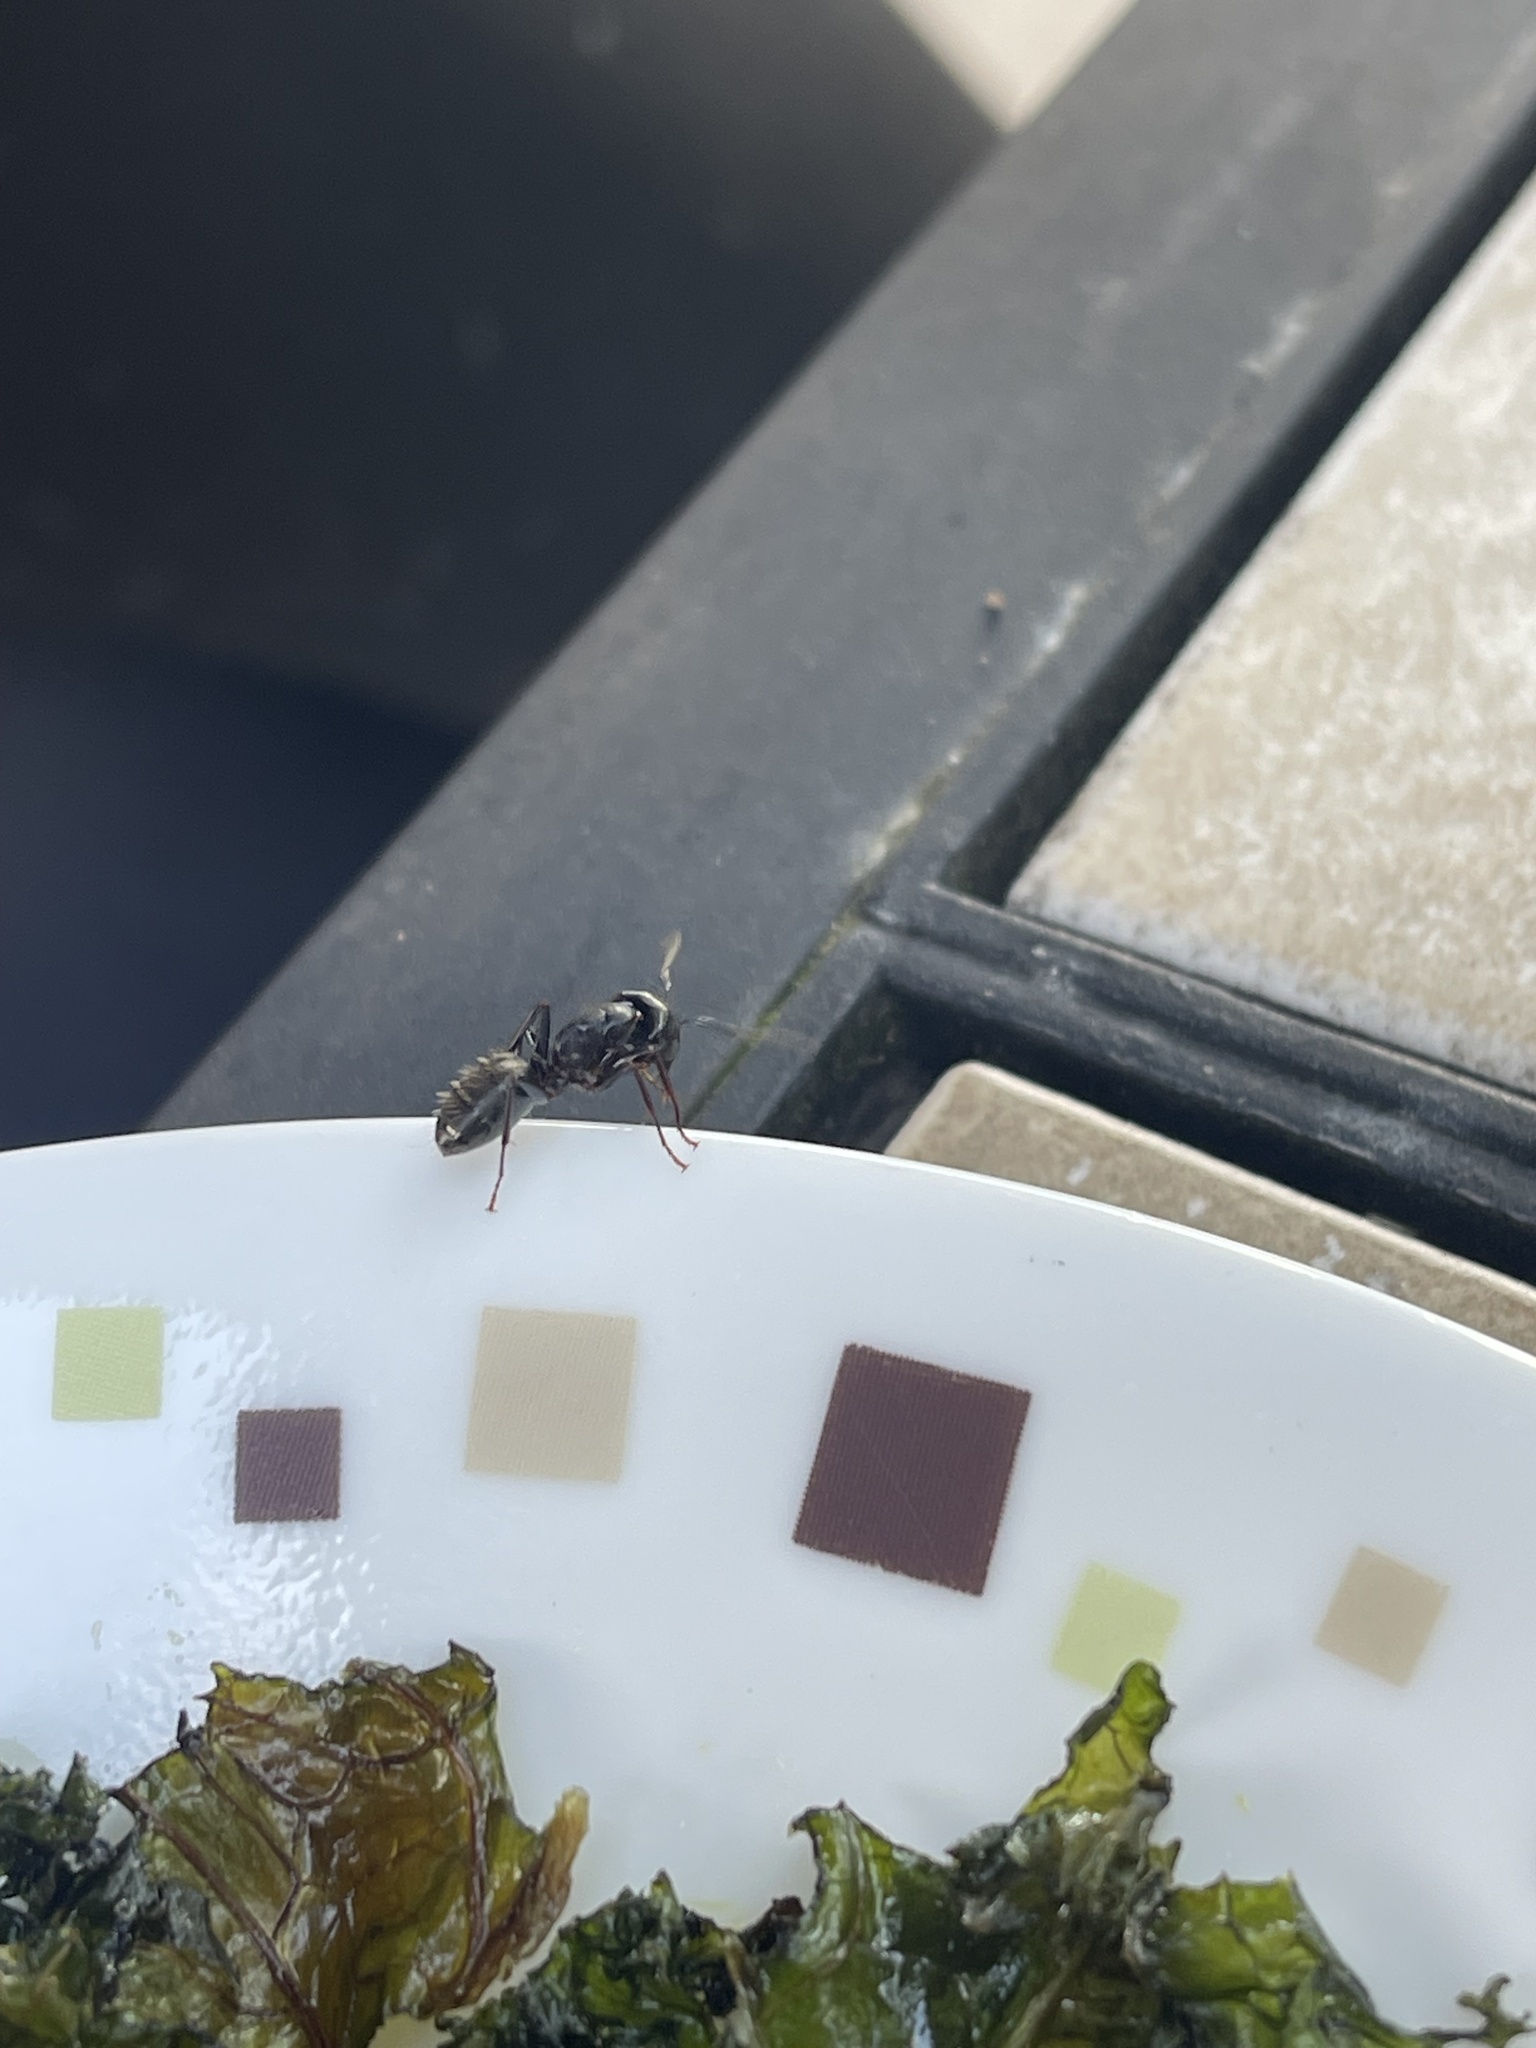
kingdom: Animalia
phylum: Arthropoda
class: Insecta
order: Hymenoptera
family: Formicidae
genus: Camponotus
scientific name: Camponotus pennsylvanicus
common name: Black carpenter ant
